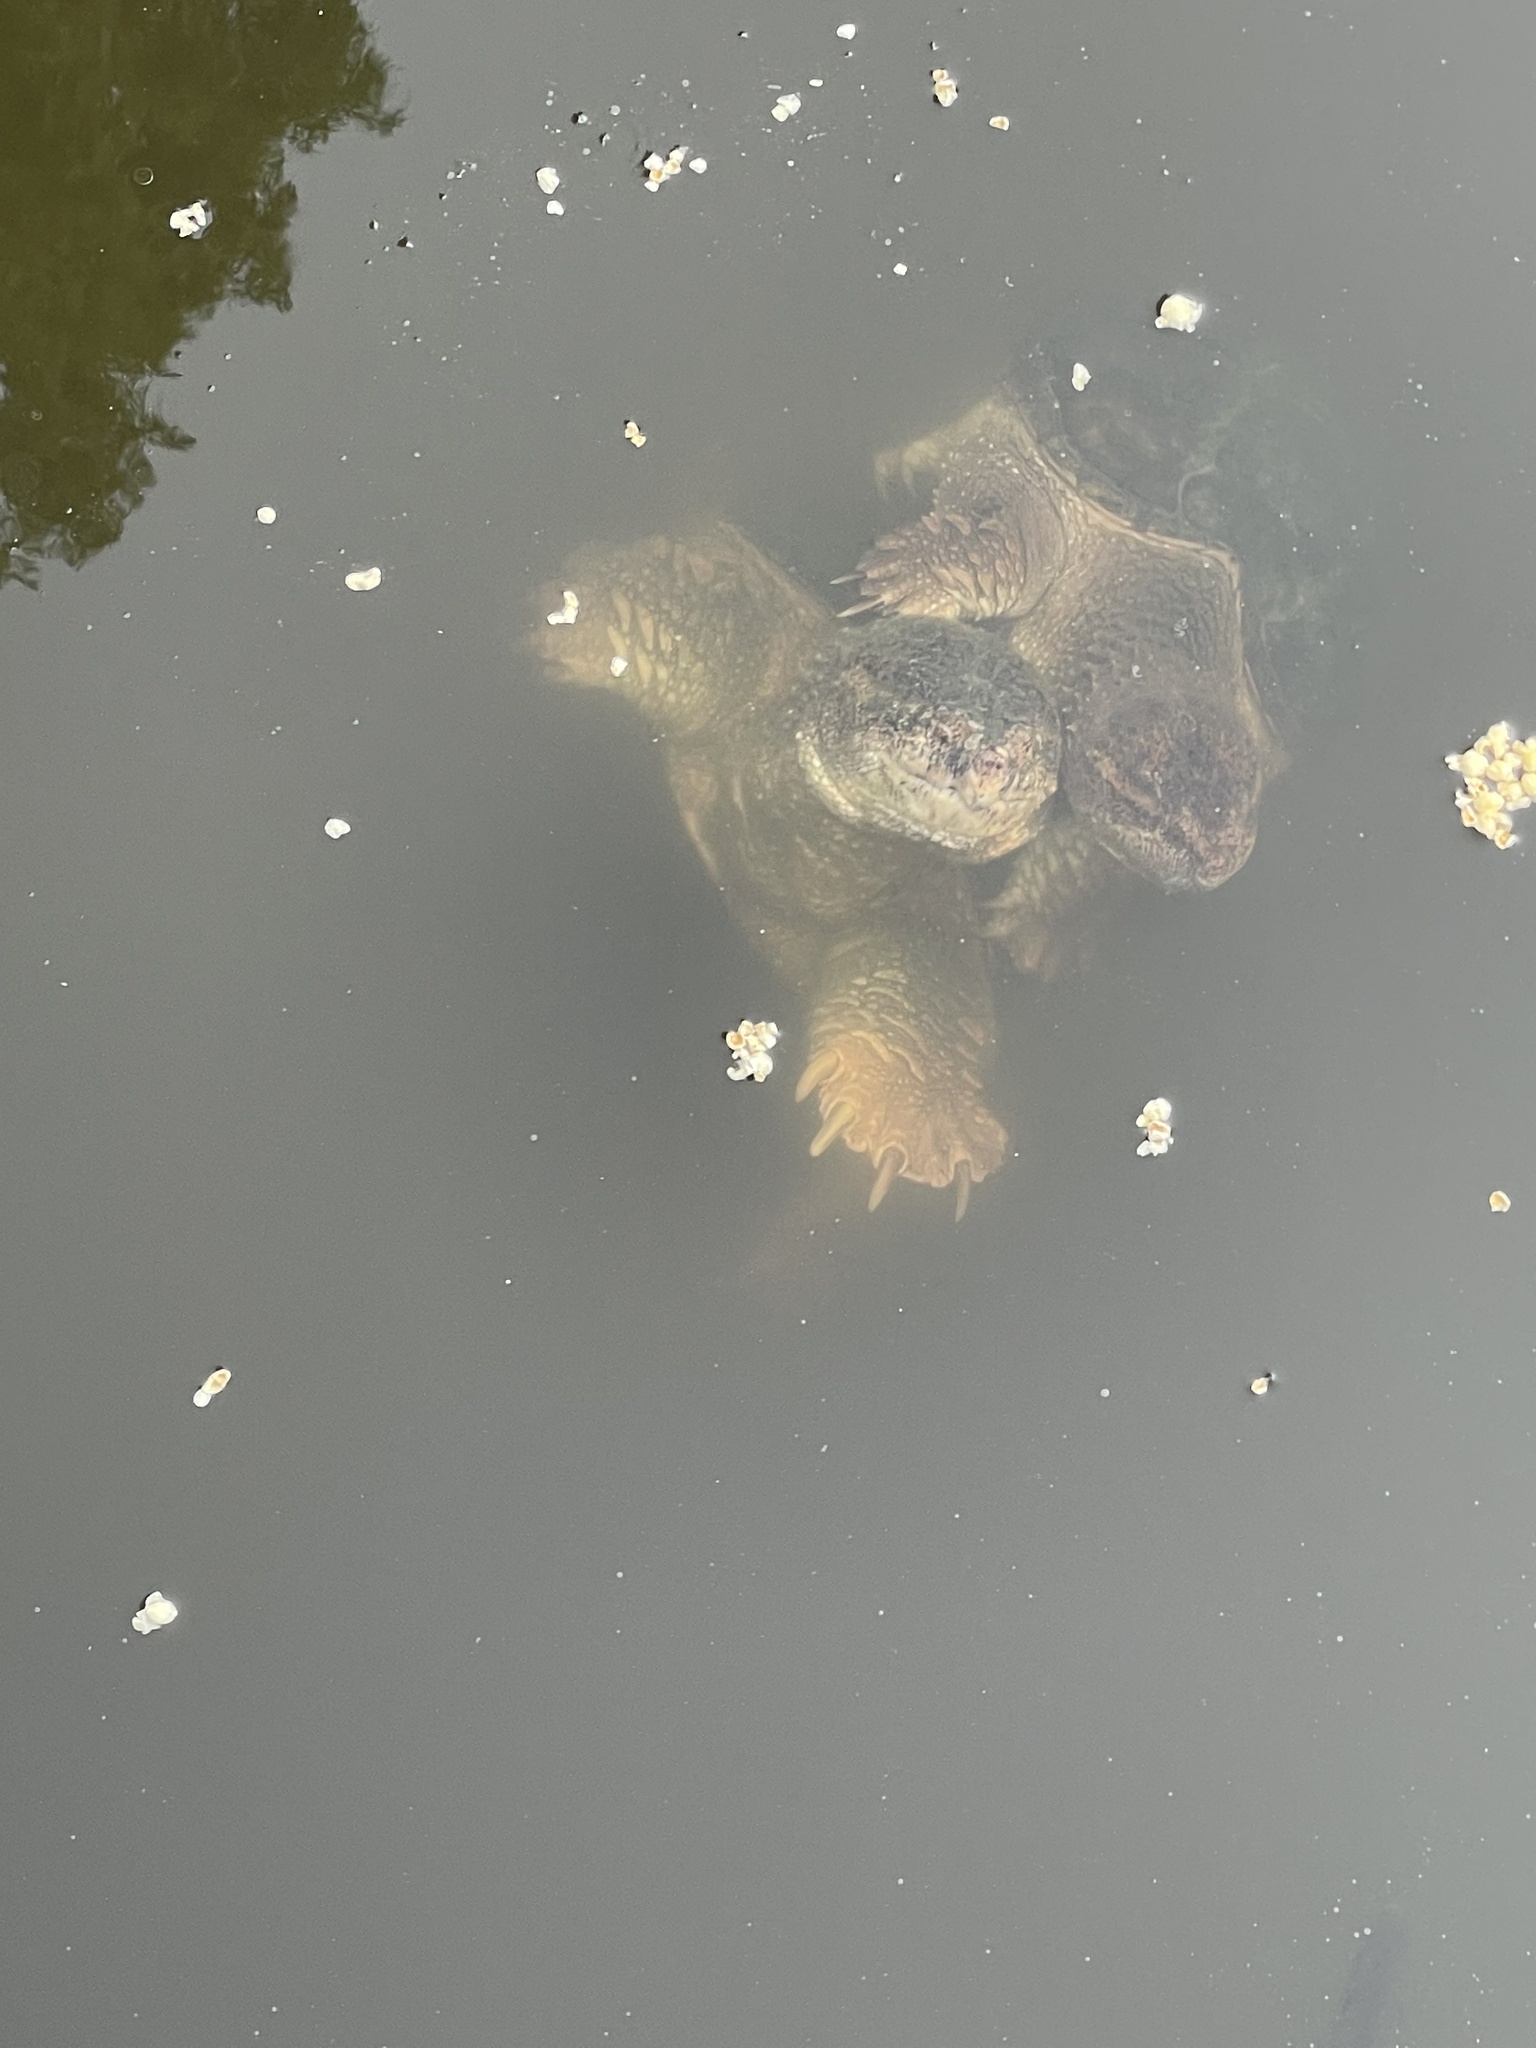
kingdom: Animalia
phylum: Chordata
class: Testudines
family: Chelydridae
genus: Chelydra
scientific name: Chelydra serpentina
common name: Common snapping turtle
